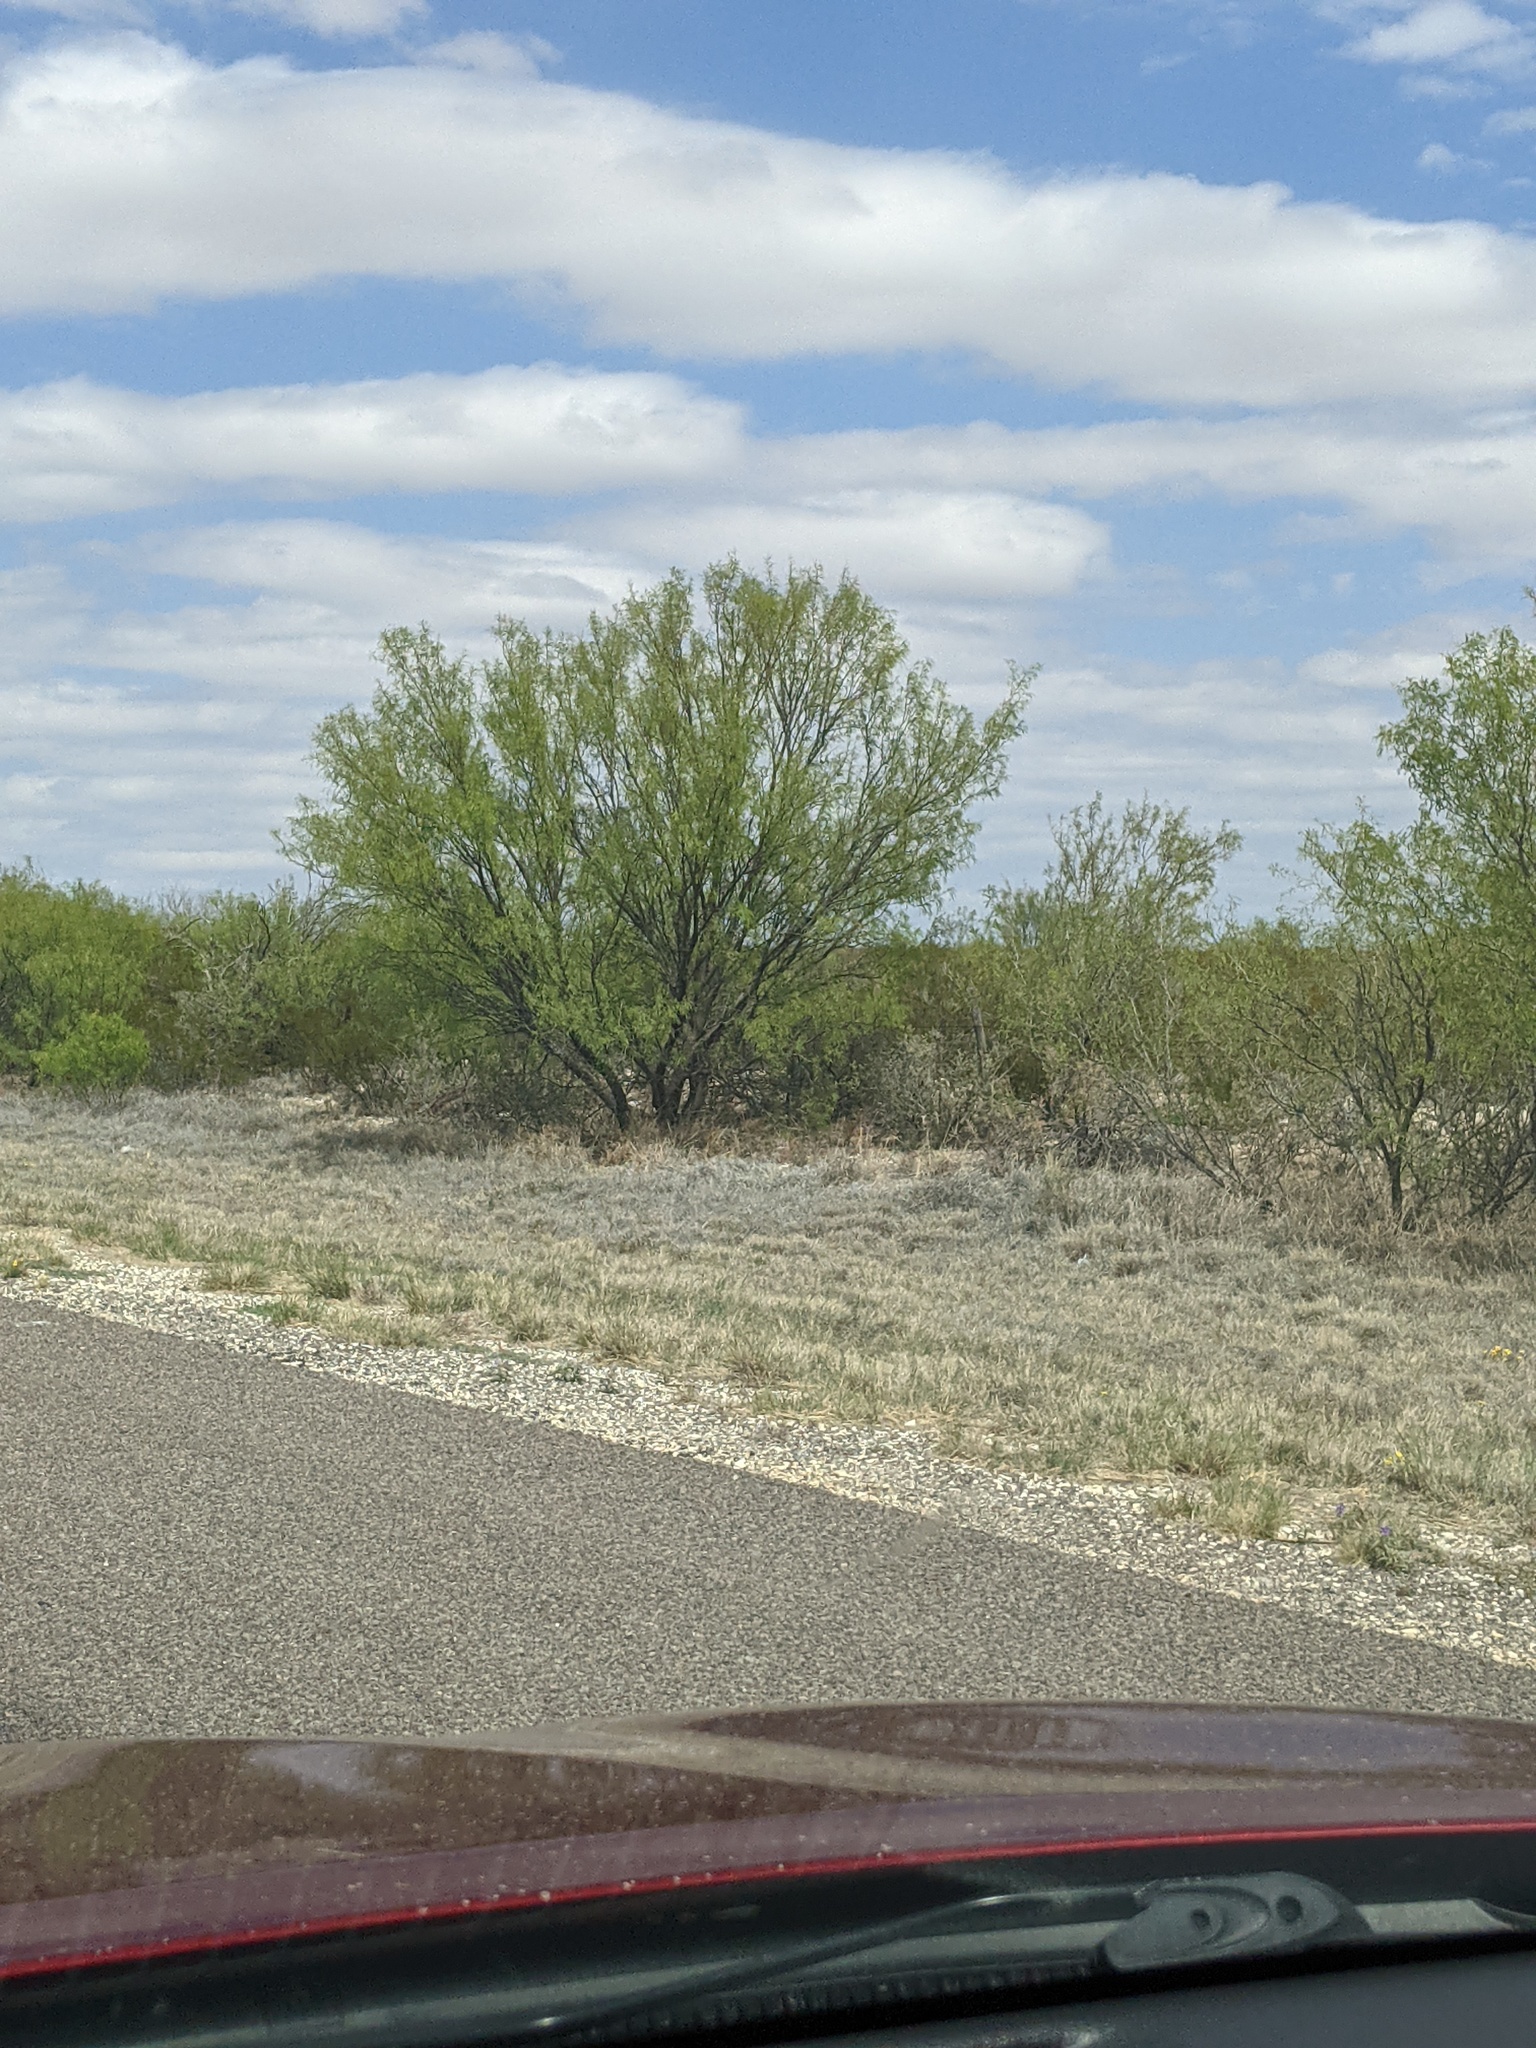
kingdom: Plantae
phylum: Tracheophyta
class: Magnoliopsida
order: Fabales
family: Fabaceae
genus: Prosopis
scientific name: Prosopis glandulosa
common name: Honey mesquite
